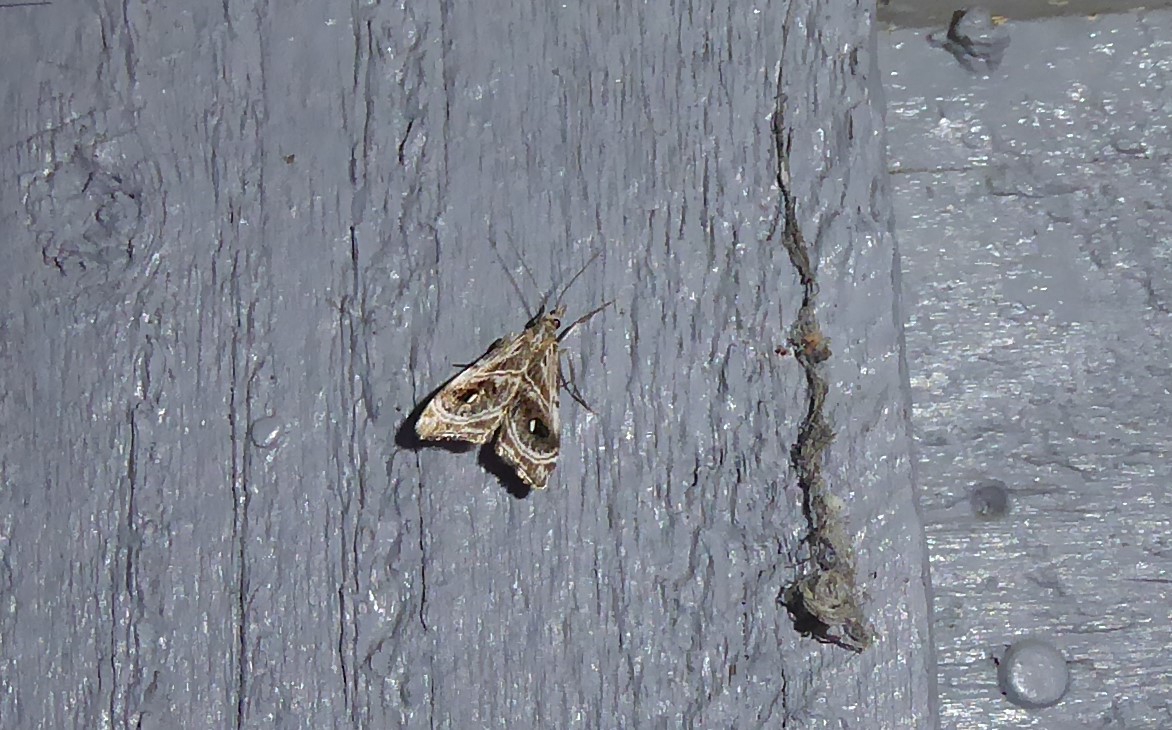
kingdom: Animalia
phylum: Arthropoda
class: Insecta
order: Lepidoptera
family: Crambidae
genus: Gadira
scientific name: Gadira acerella
